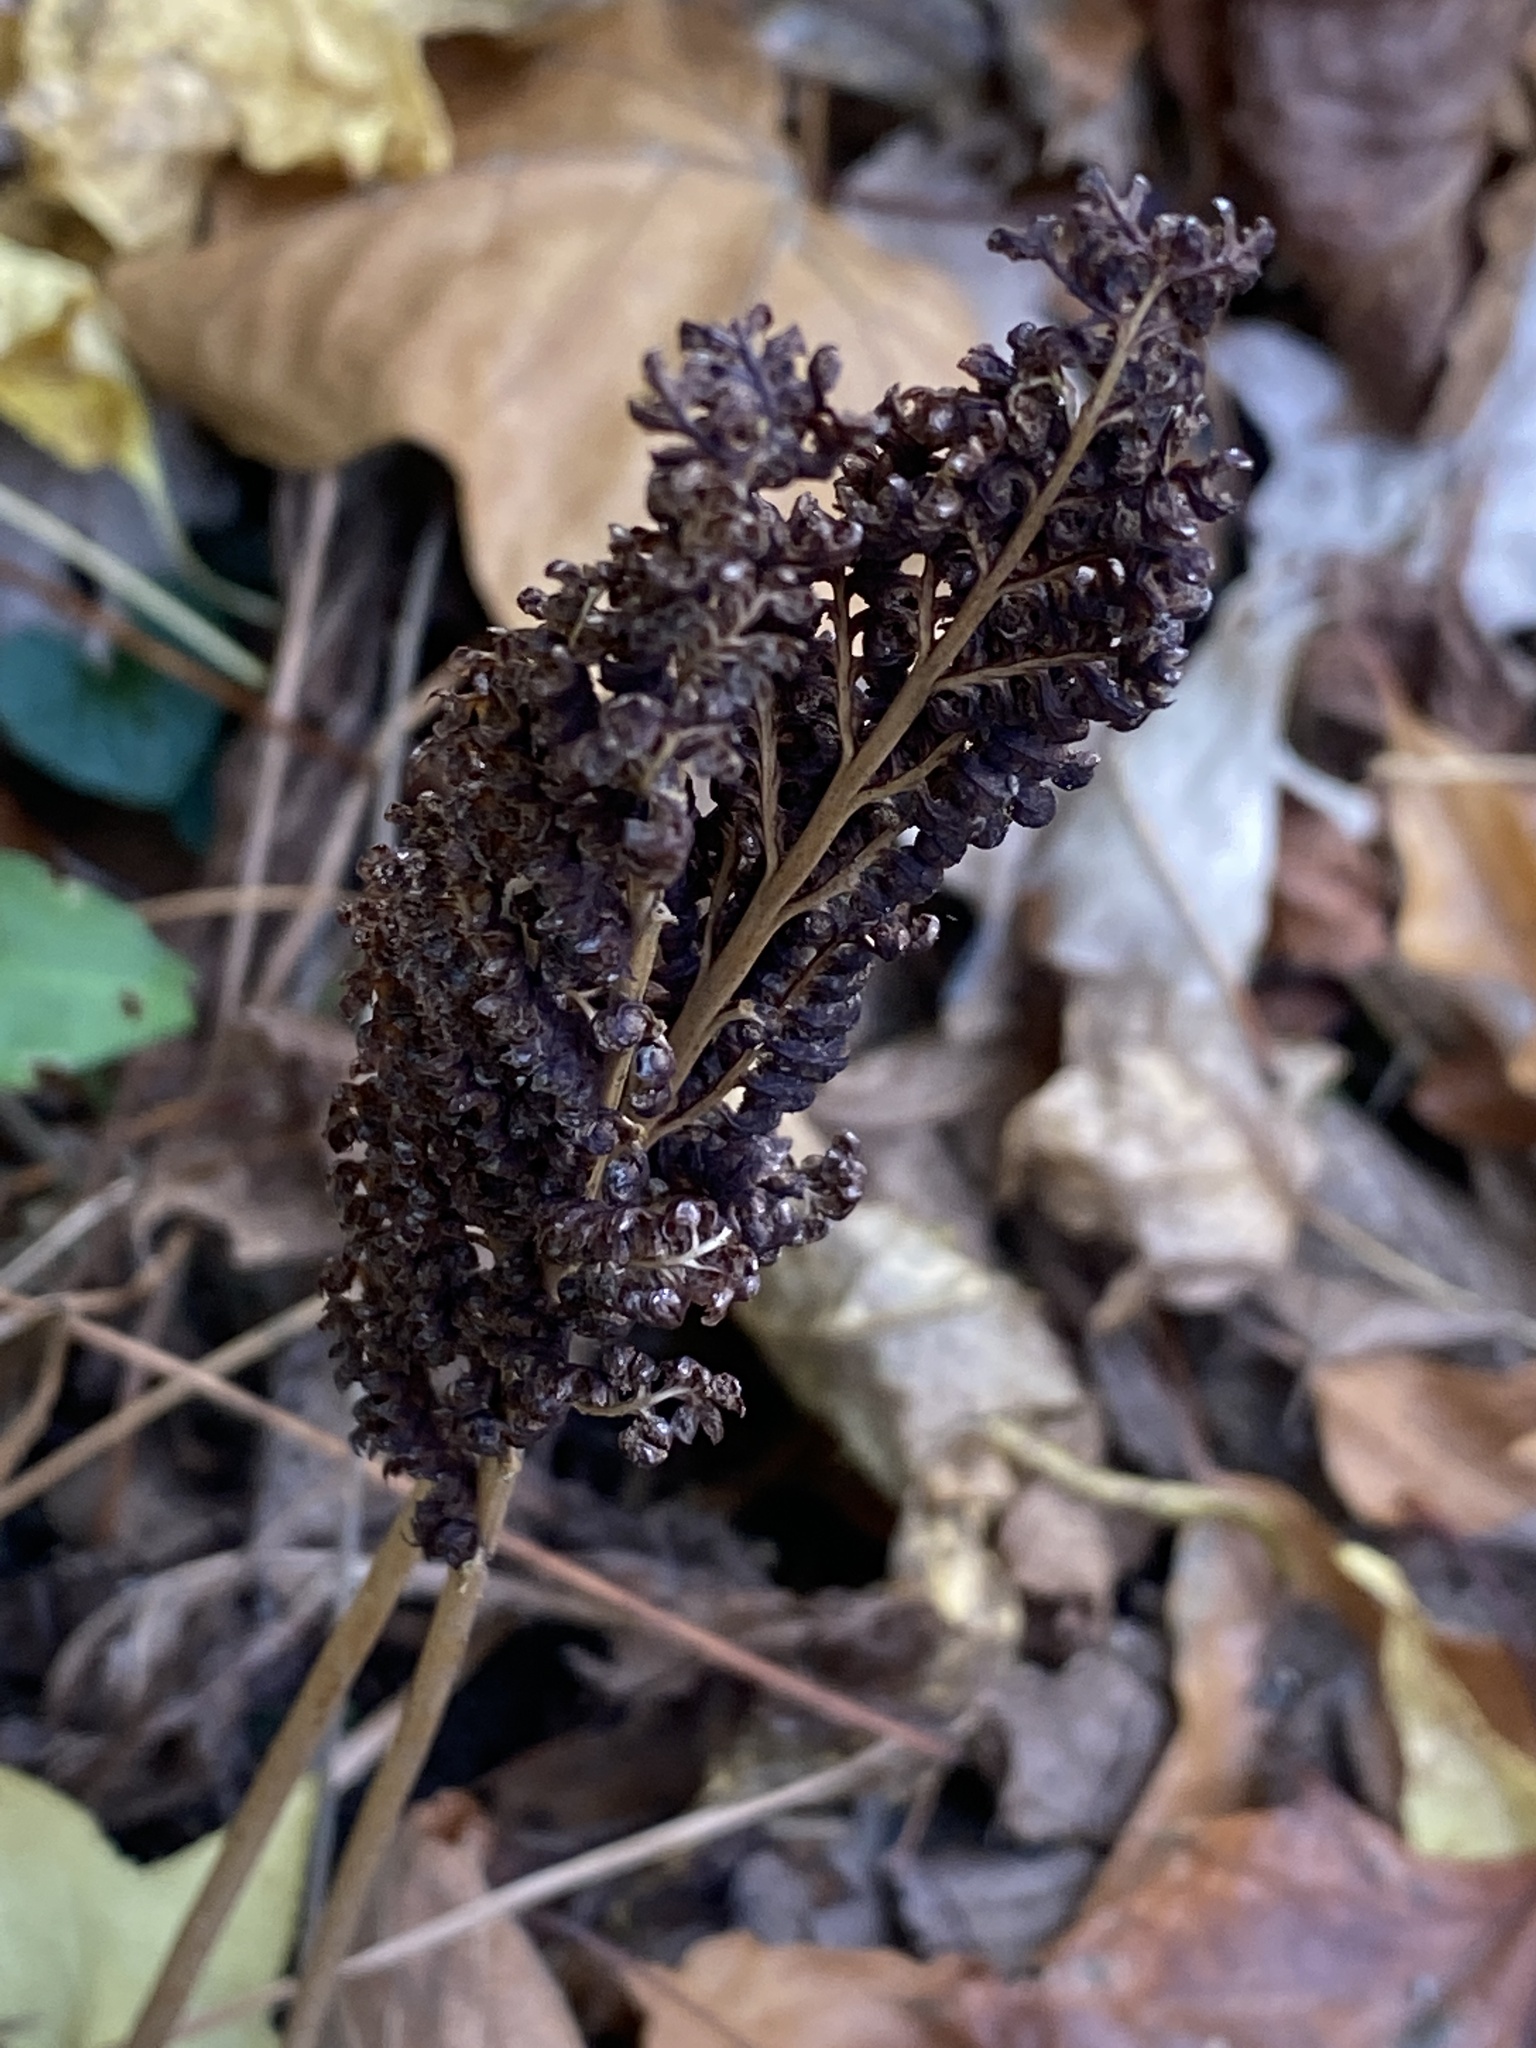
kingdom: Plantae
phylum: Tracheophyta
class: Polypodiopsida
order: Polypodiales
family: Onocleaceae
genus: Onoclea
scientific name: Onoclea sensibilis
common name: Sensitive fern
